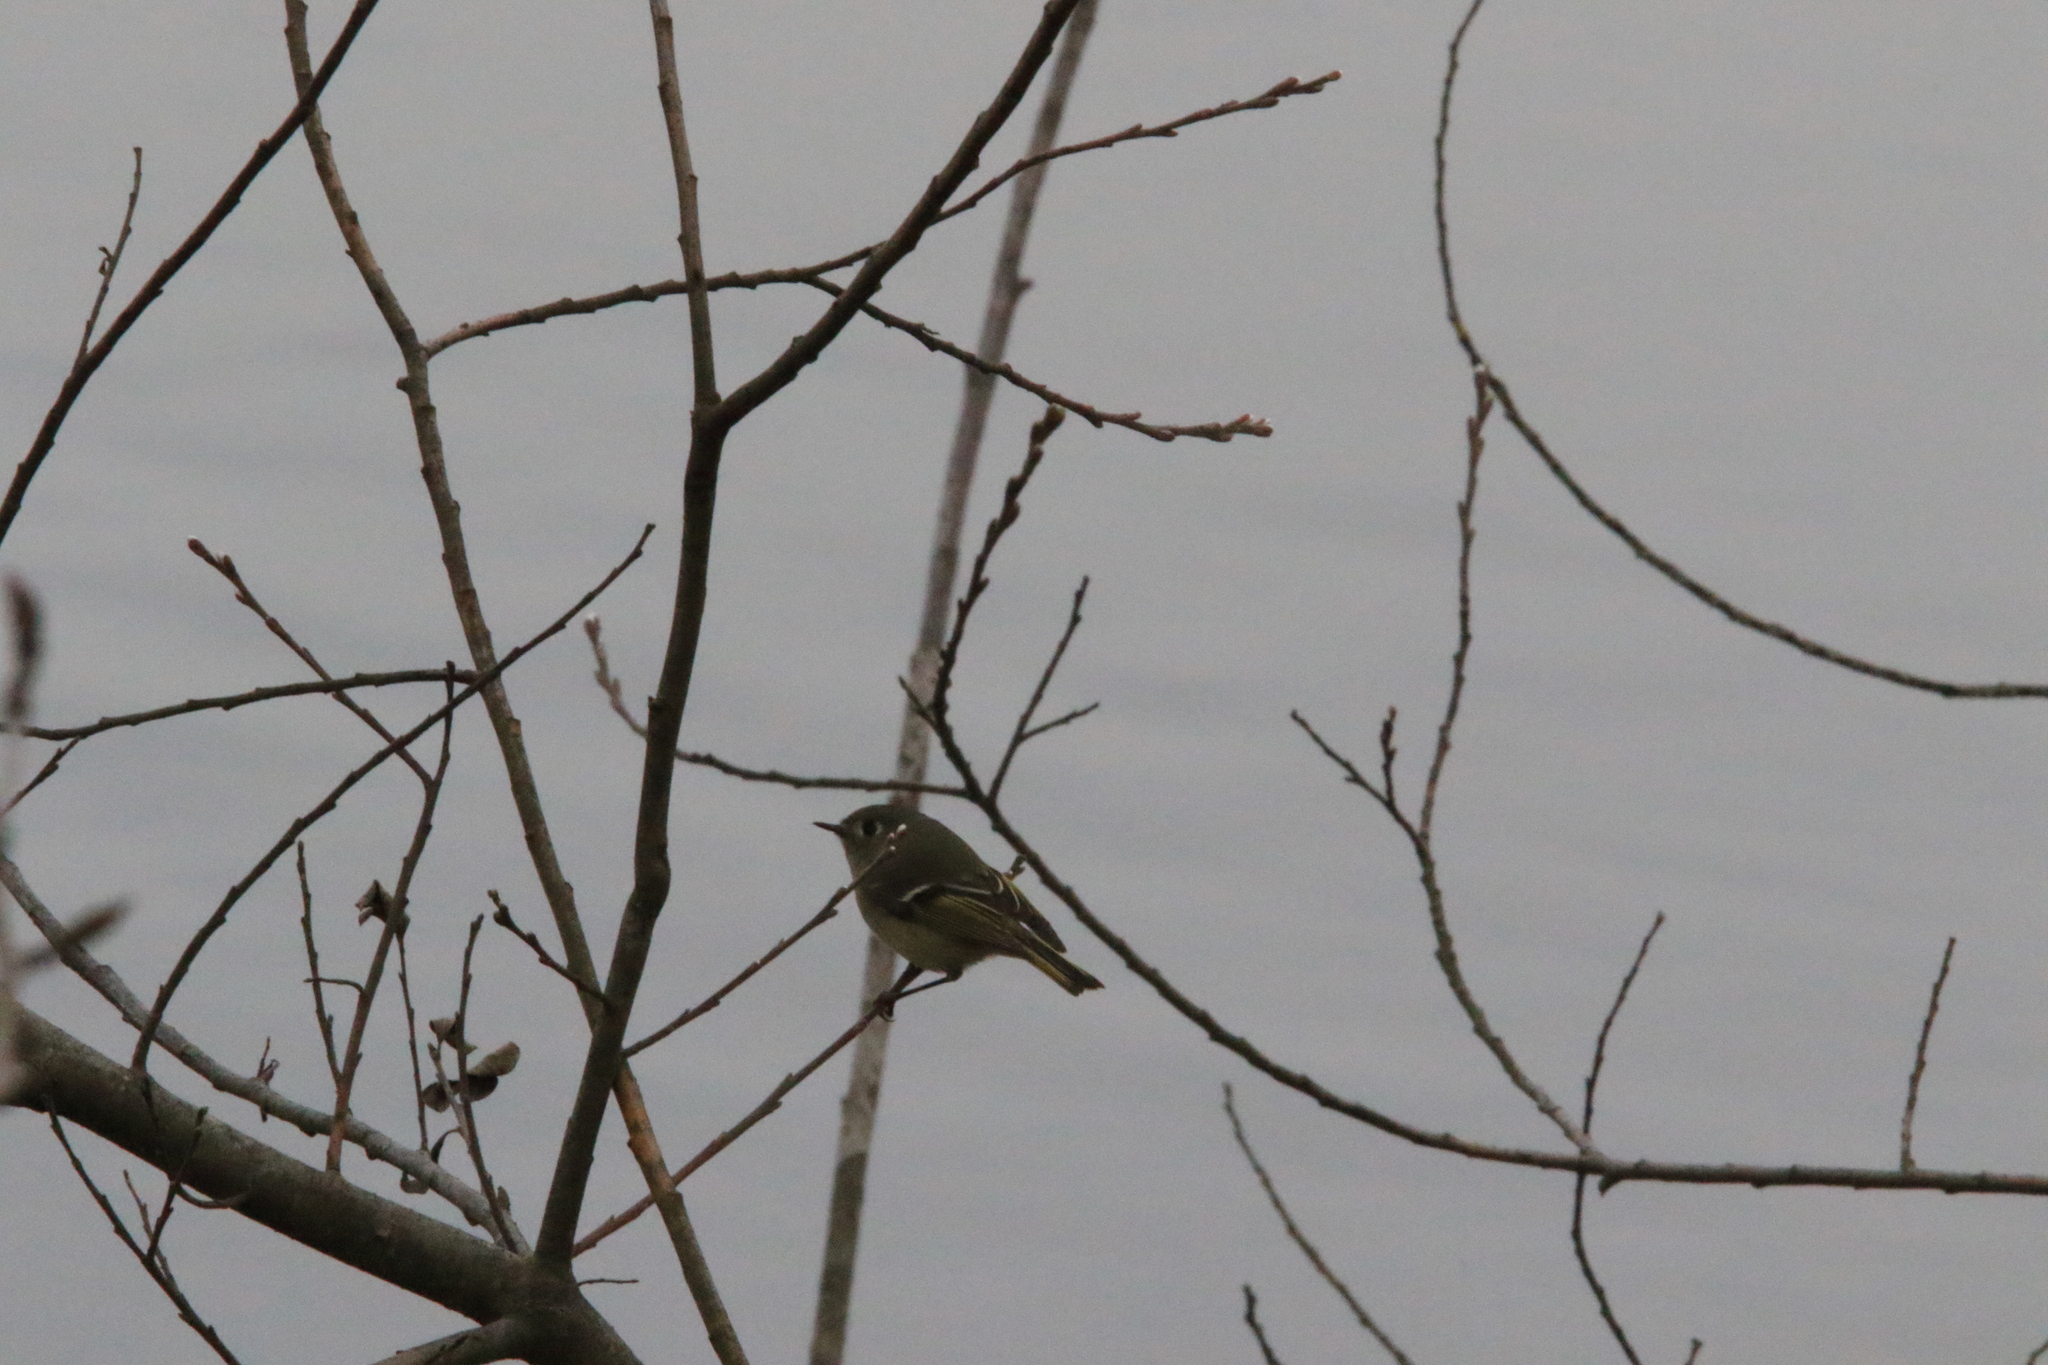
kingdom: Animalia
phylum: Chordata
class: Aves
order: Passeriformes
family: Regulidae
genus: Regulus
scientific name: Regulus calendula
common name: Ruby-crowned kinglet
